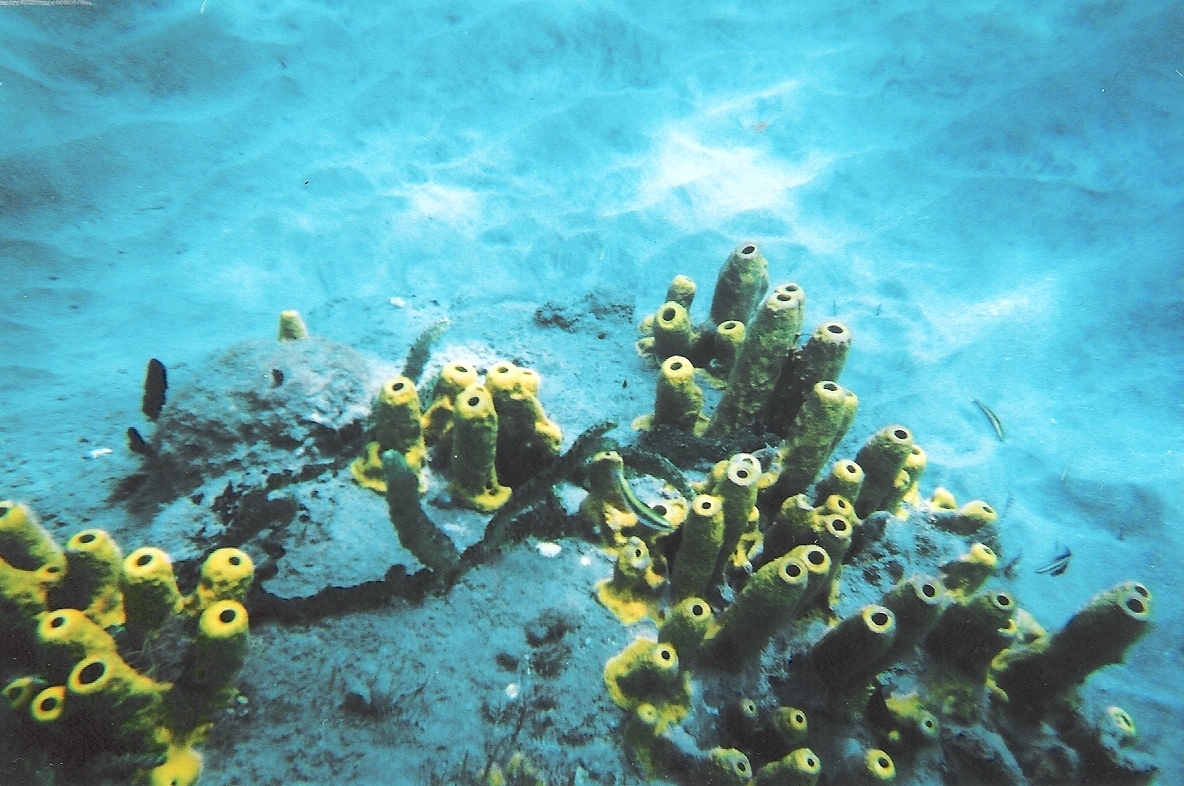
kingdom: Animalia
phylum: Porifera
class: Demospongiae
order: Verongiida
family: Aplysinidae
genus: Aplysina
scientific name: Aplysina fistularis
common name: Candle sponge
